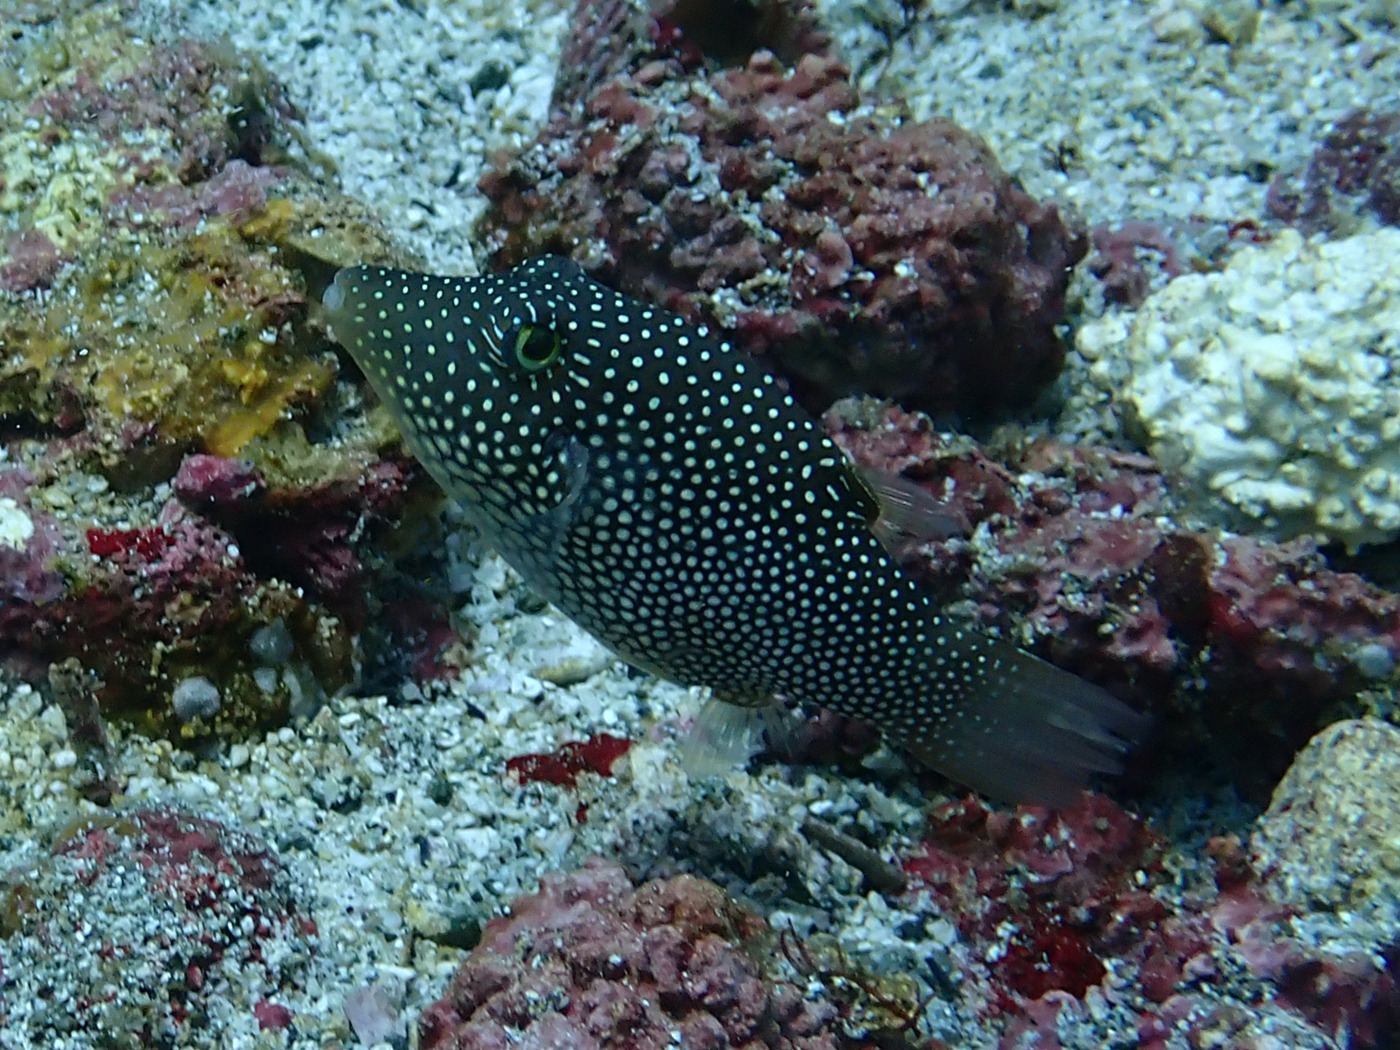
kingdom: Animalia
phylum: Chordata
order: Tetraodontiformes
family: Tetraodontidae
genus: Canthigaster
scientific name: Canthigaster punctatissima
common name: Spotted sharpnose puffer
